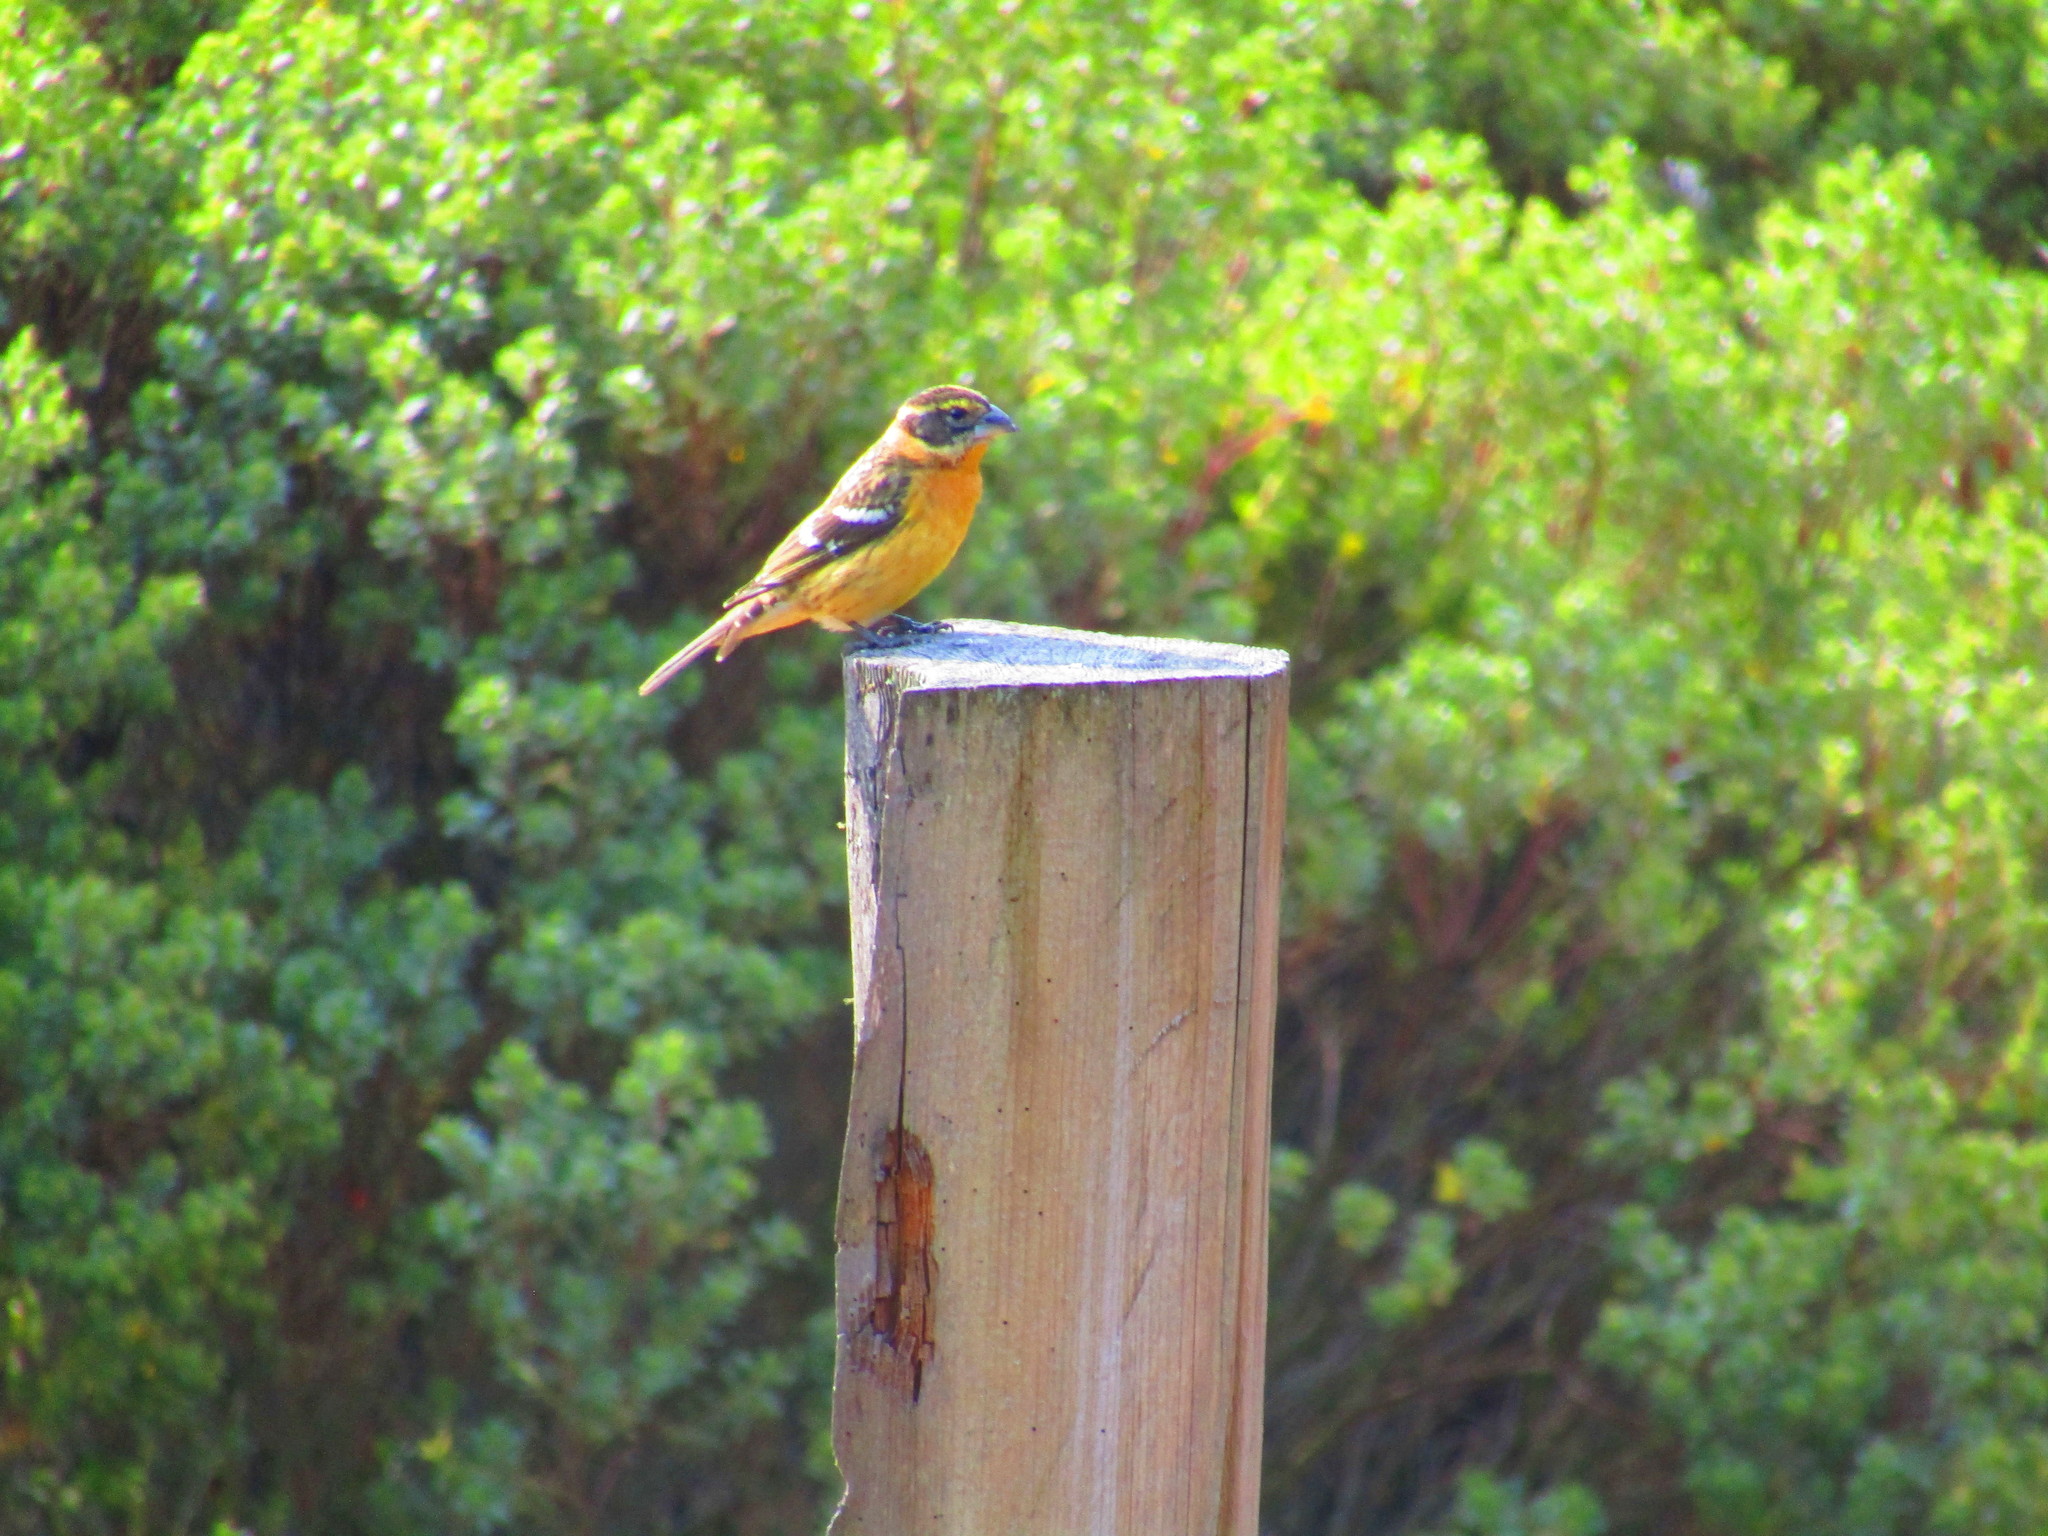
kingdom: Animalia
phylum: Chordata
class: Aves
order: Passeriformes
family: Cardinalidae
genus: Pheucticus
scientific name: Pheucticus melanocephalus
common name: Black-headed grosbeak
